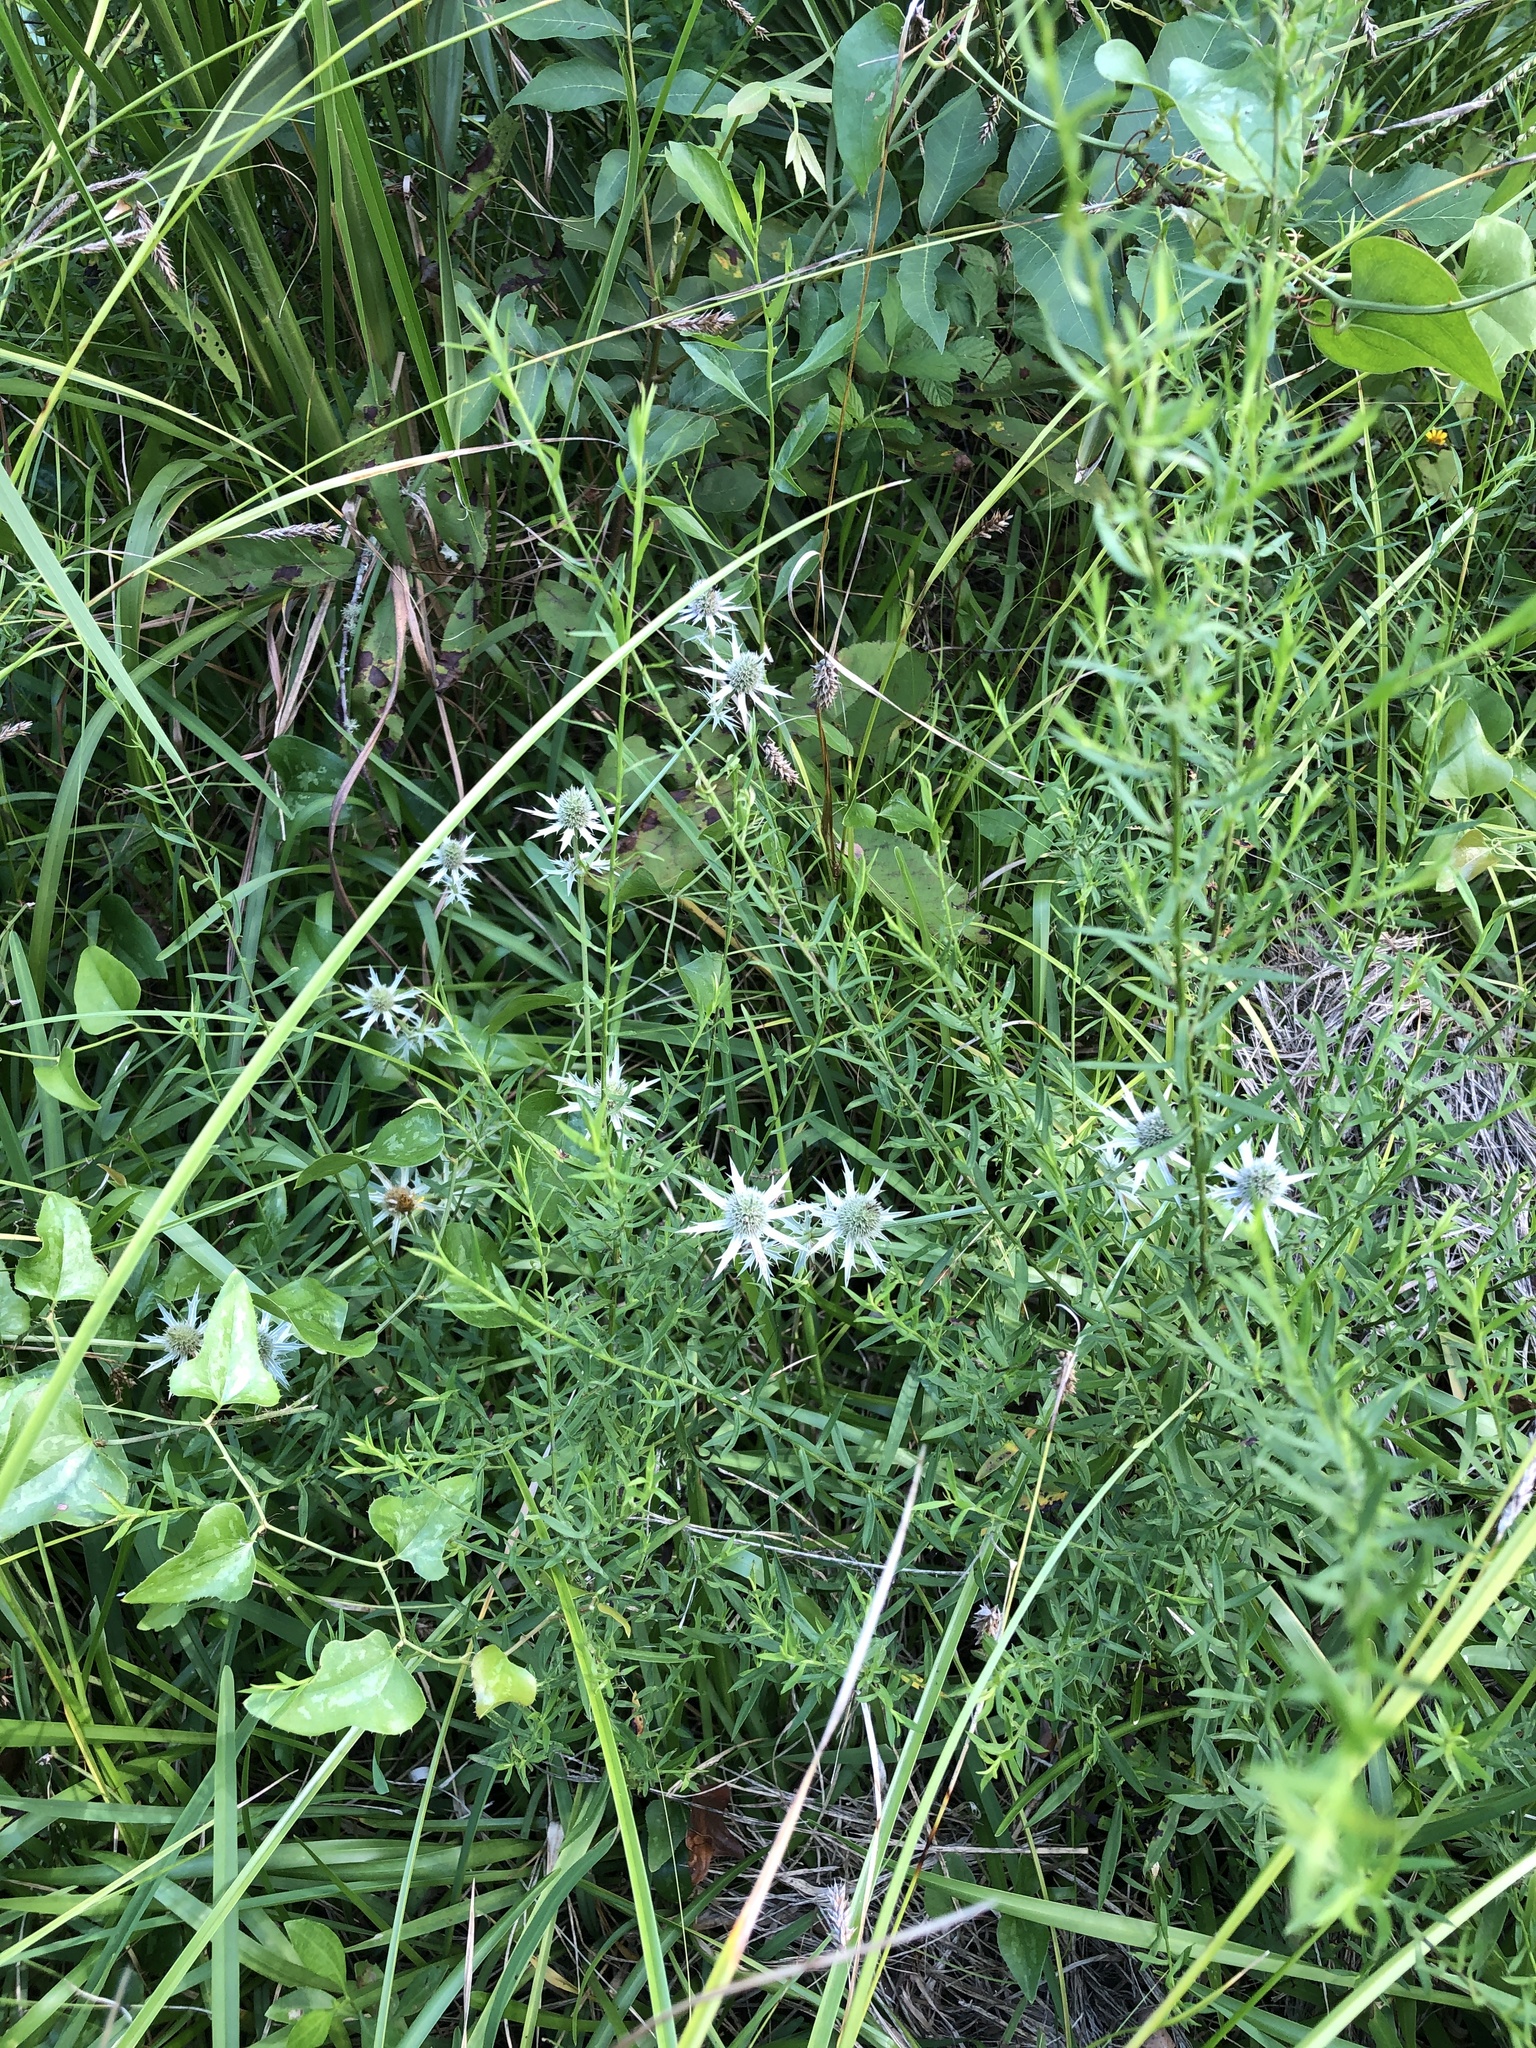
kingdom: Plantae
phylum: Tracheophyta
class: Magnoliopsida
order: Apiales
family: Apiaceae
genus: Eryngium
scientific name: Eryngium hookeri
